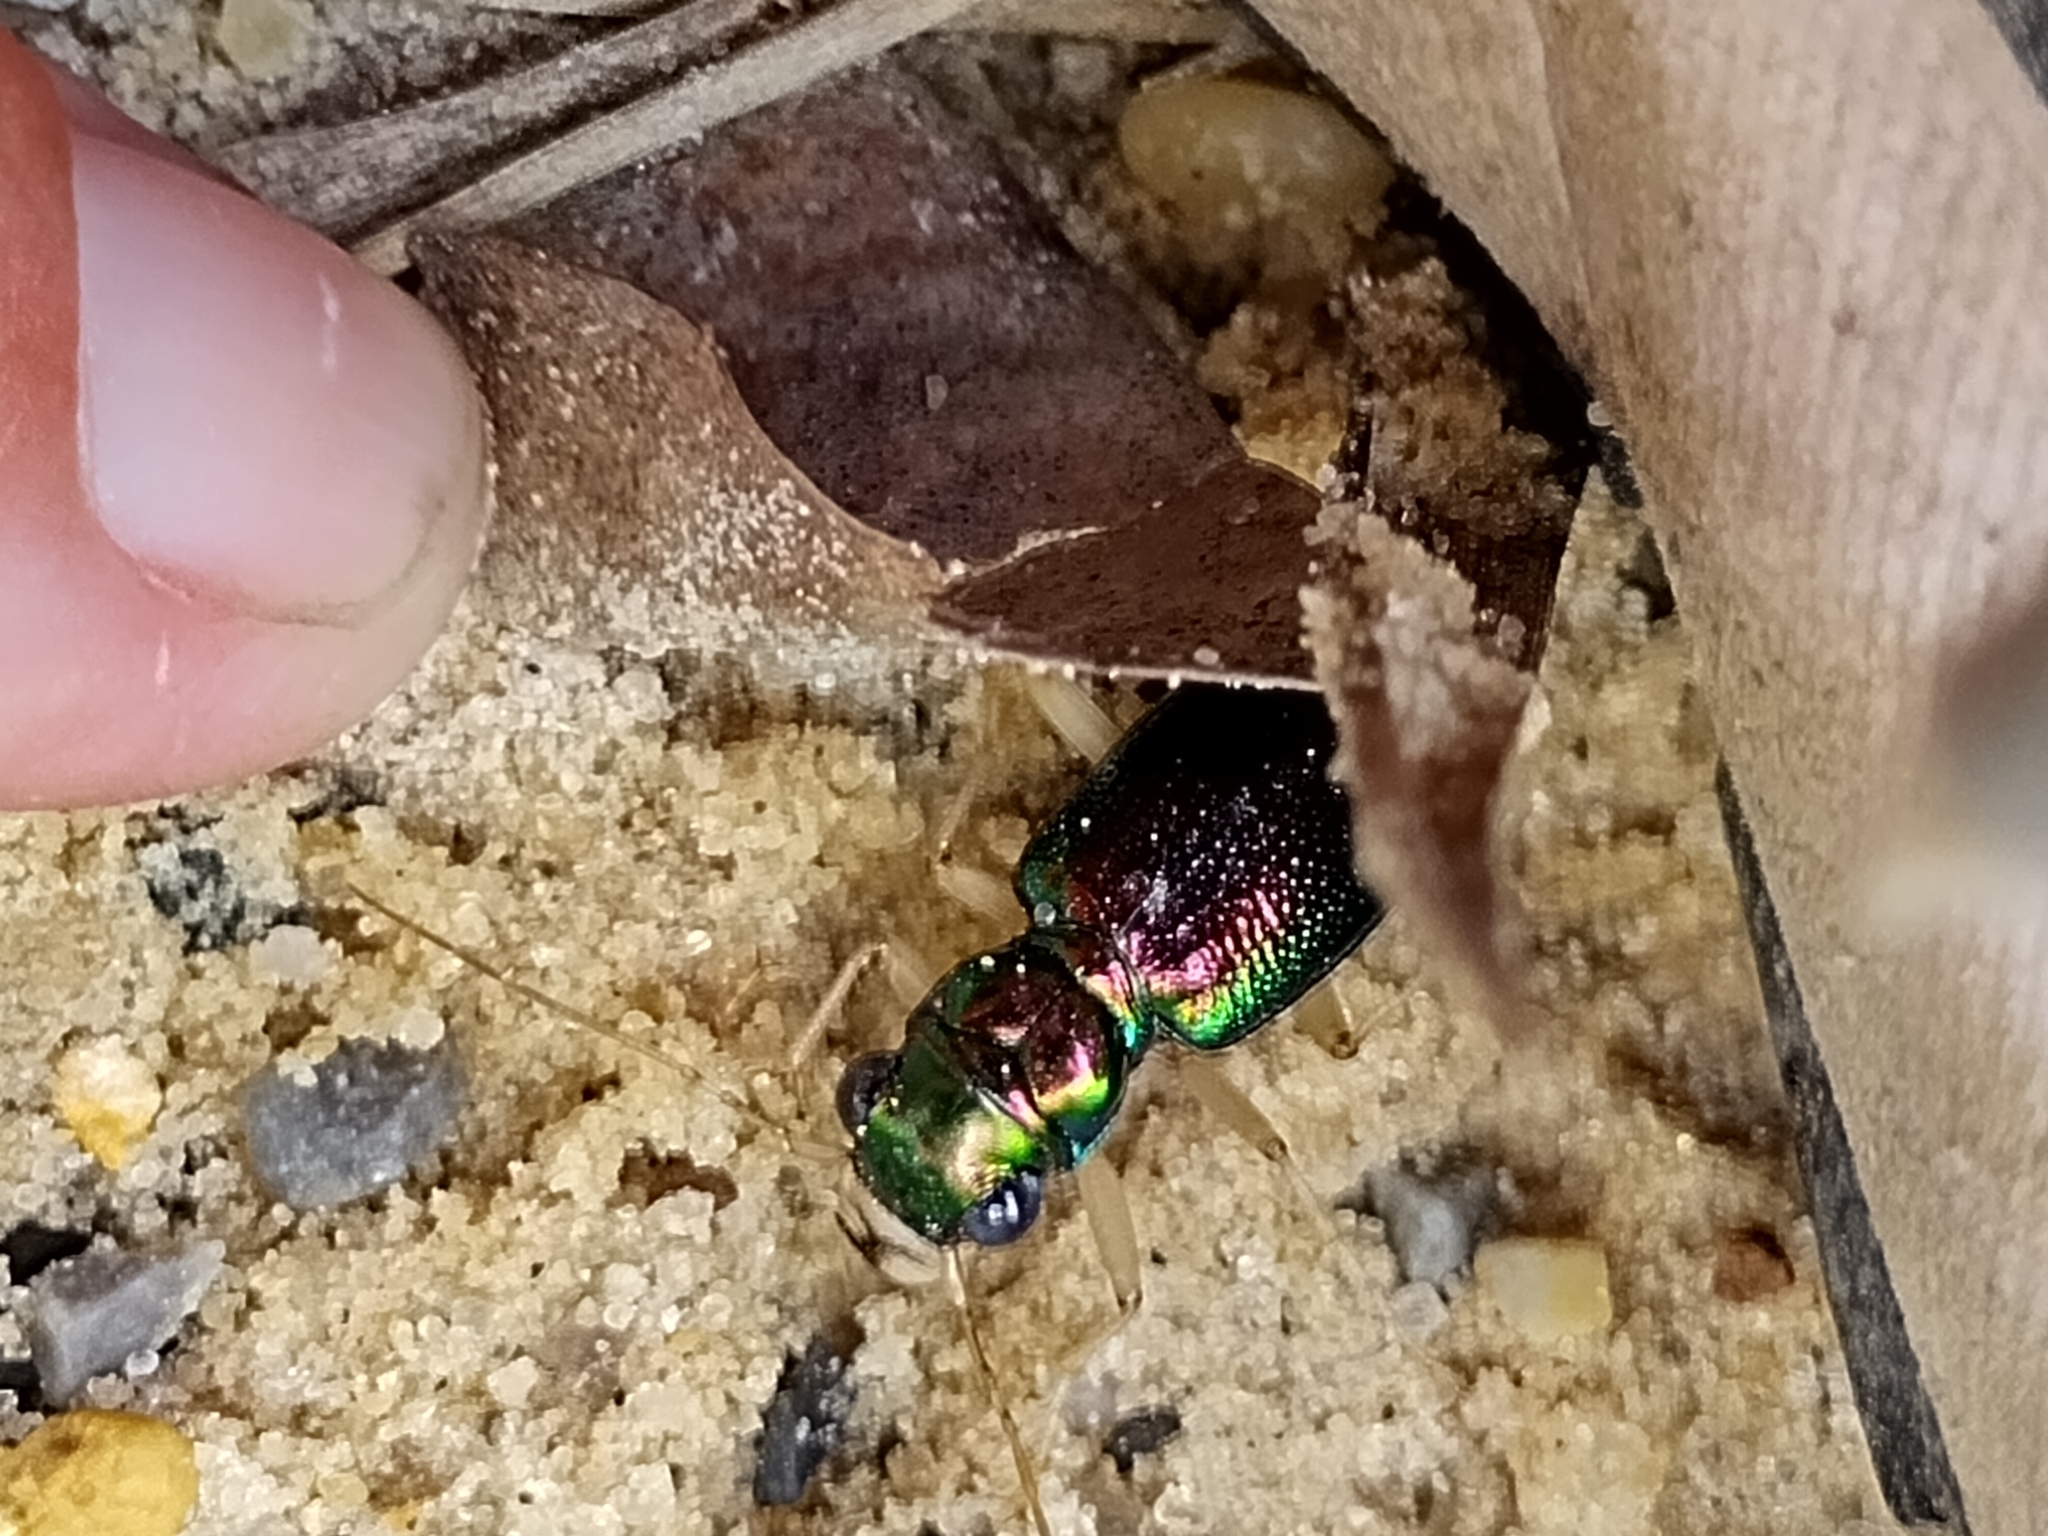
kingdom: Animalia
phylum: Arthropoda
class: Insecta
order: Coleoptera
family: Carabidae
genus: Tetracha
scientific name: Tetracha carolina
